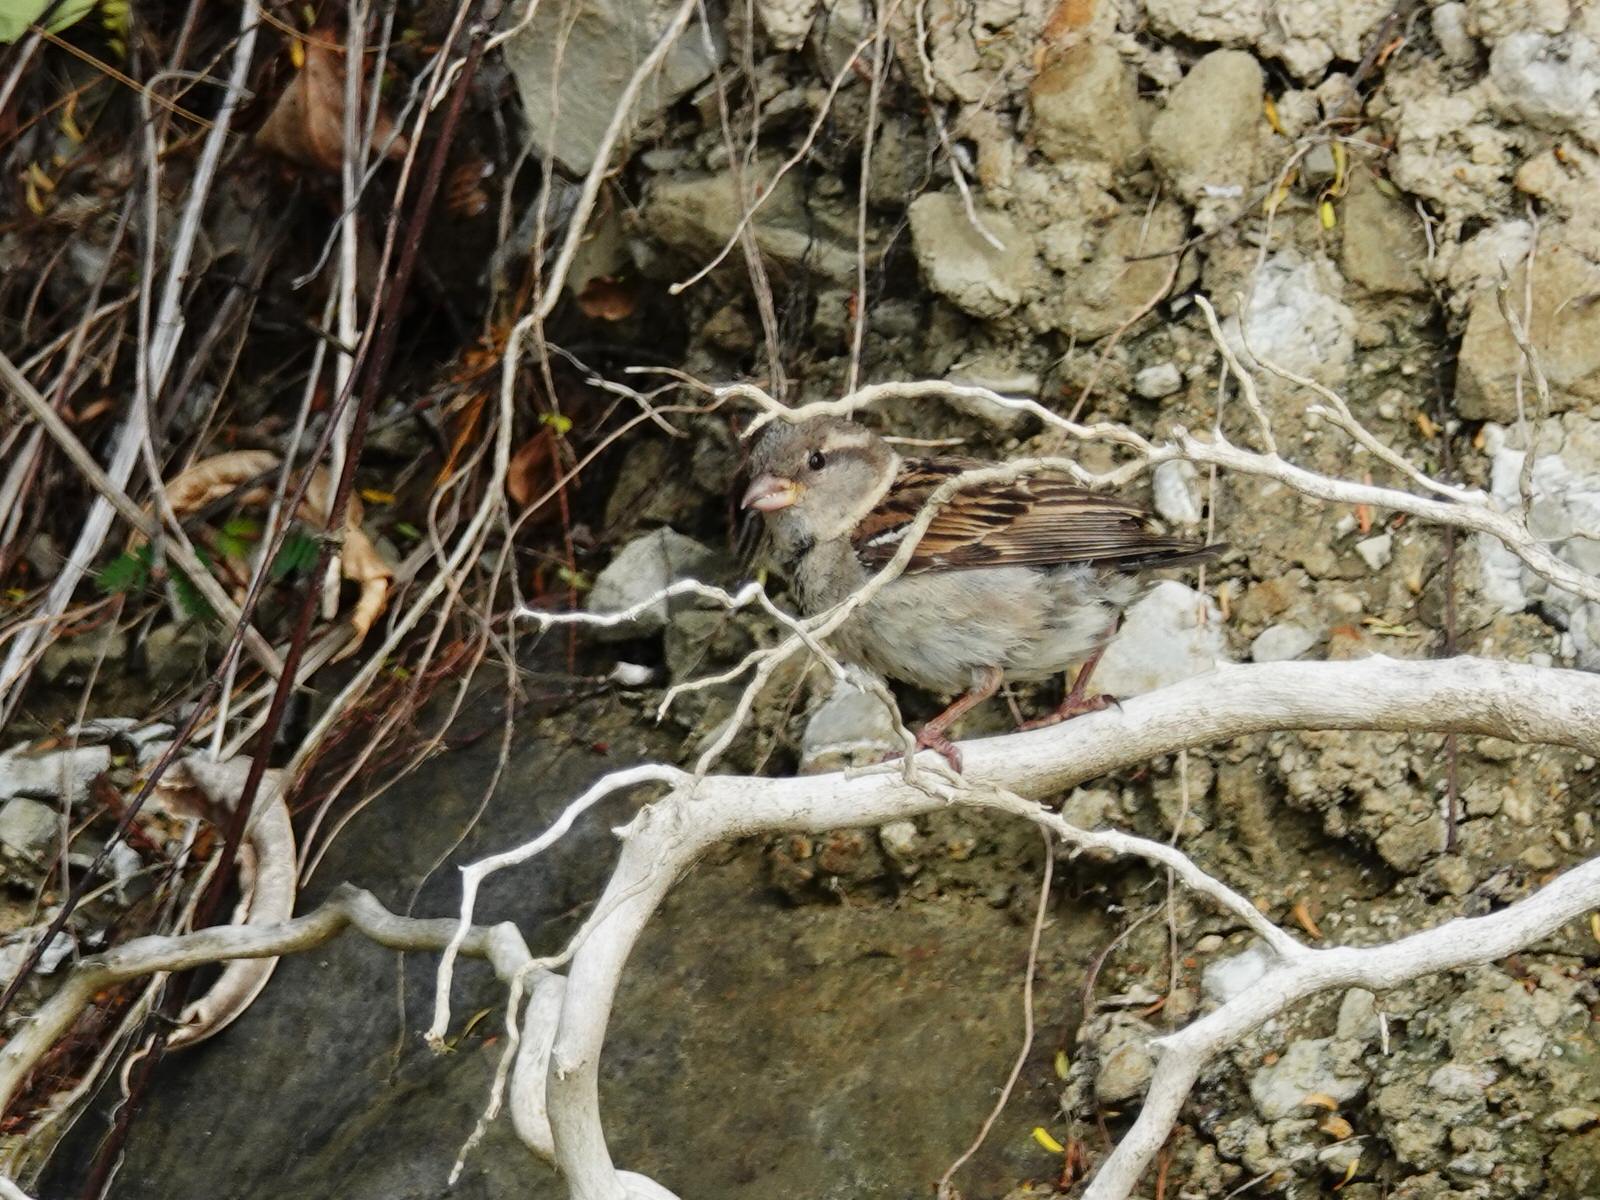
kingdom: Animalia
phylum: Chordata
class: Aves
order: Passeriformes
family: Passeridae
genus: Passer
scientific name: Passer domesticus
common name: House sparrow
